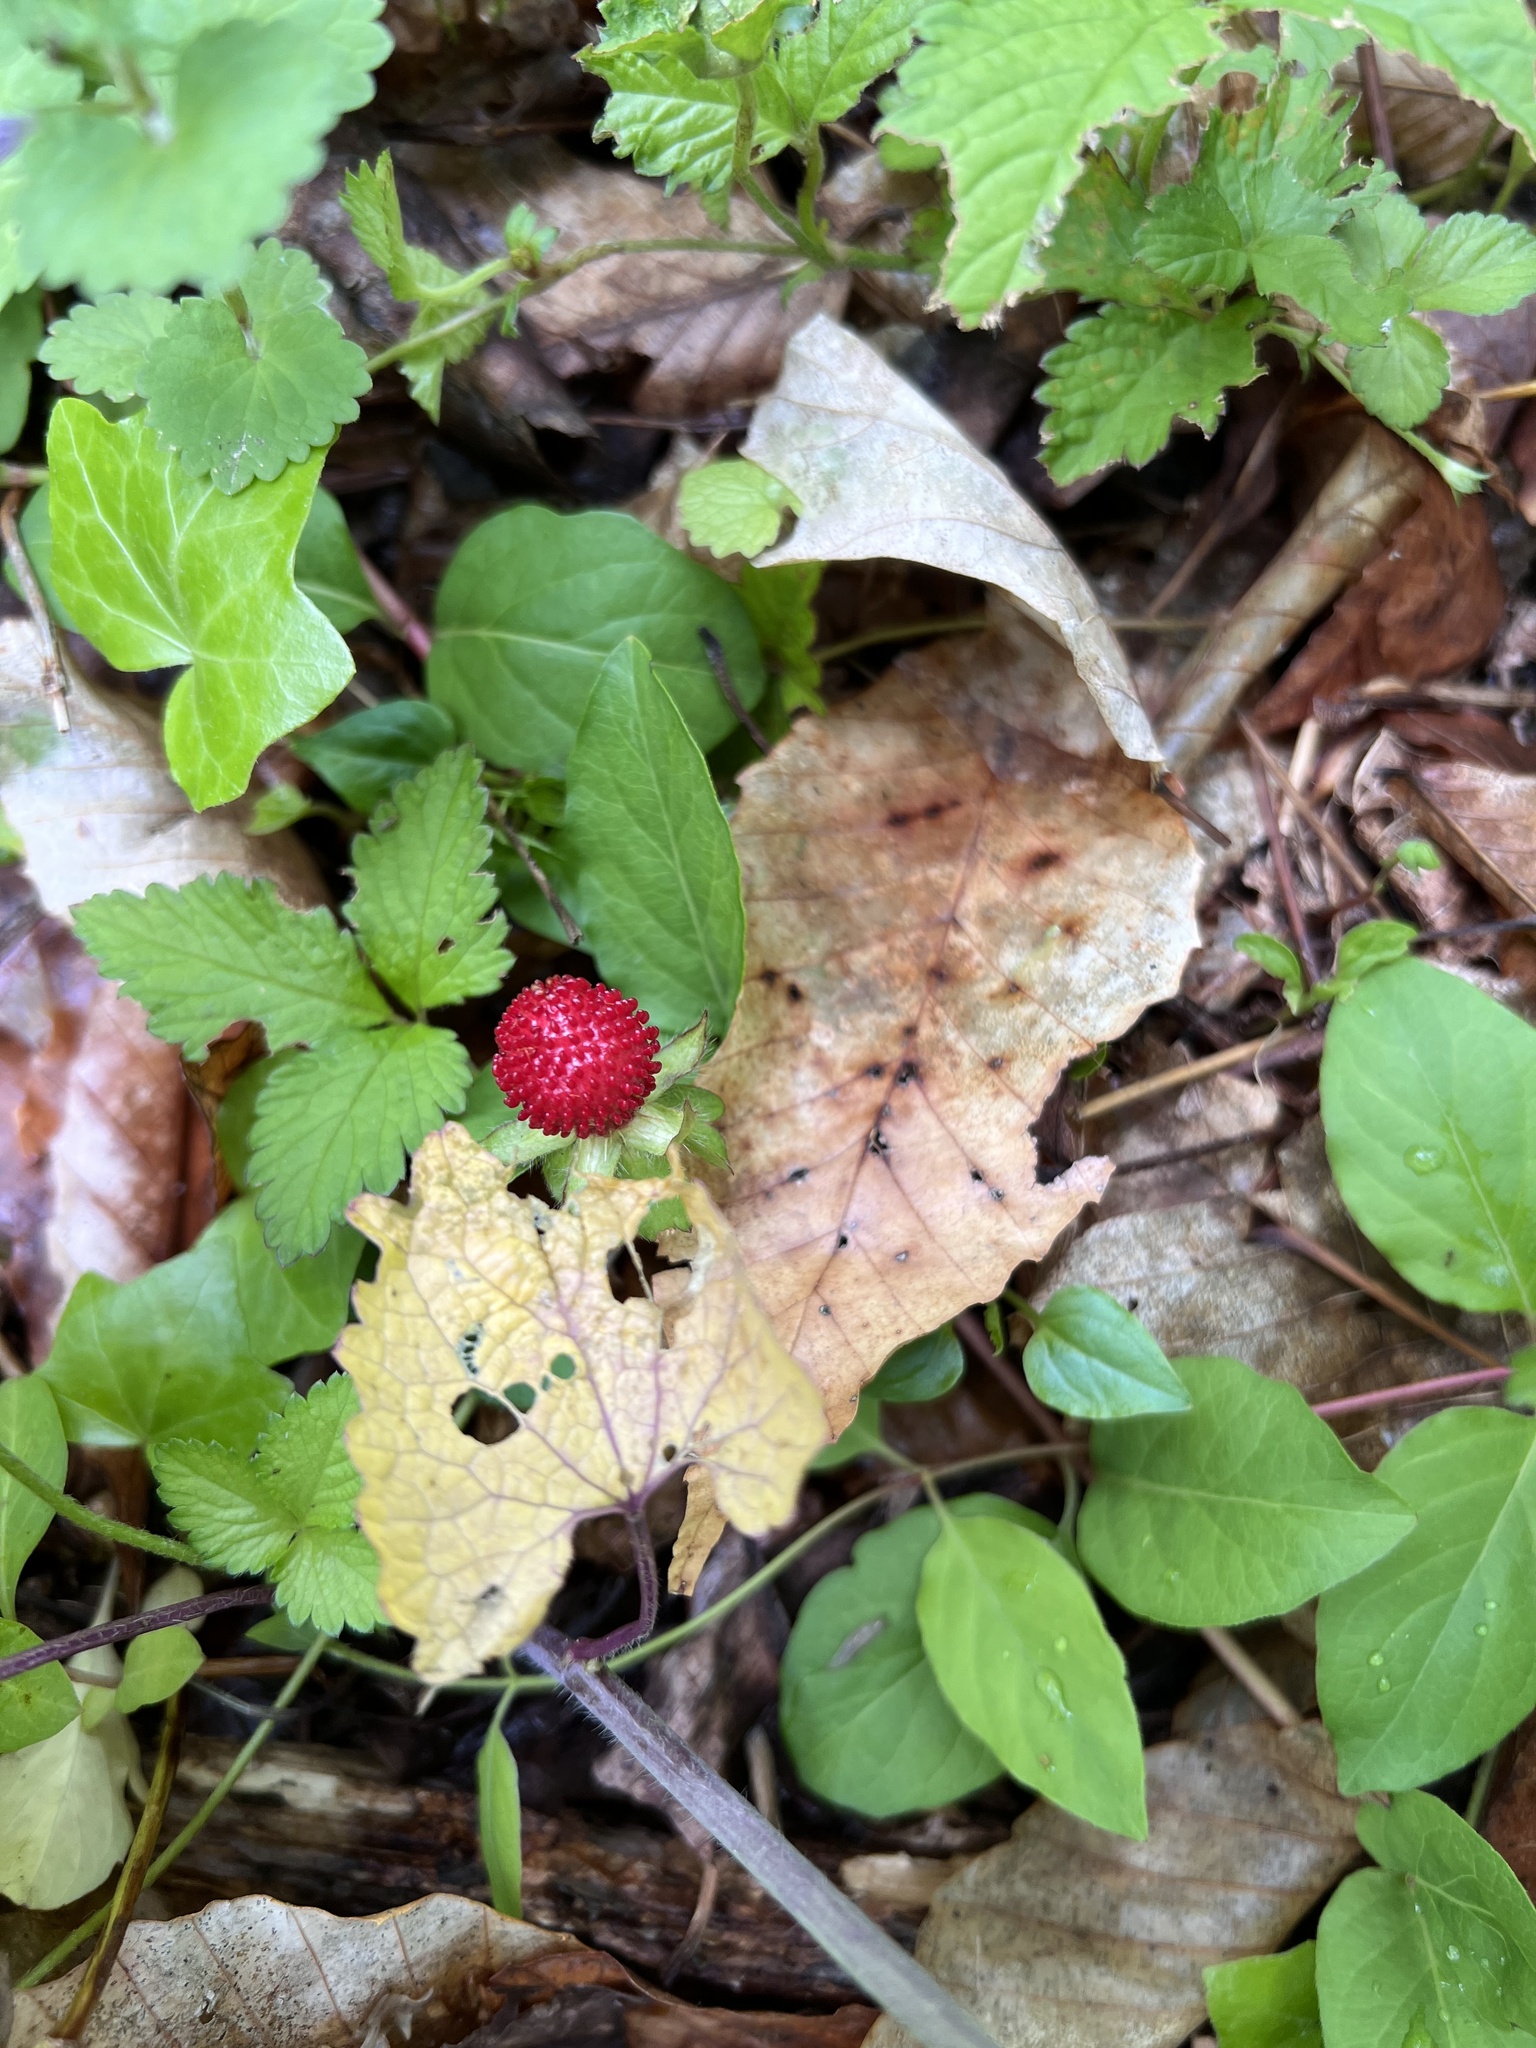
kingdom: Plantae
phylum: Tracheophyta
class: Magnoliopsida
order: Rosales
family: Rosaceae
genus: Potentilla
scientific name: Potentilla indica
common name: Yellow-flowered strawberry
